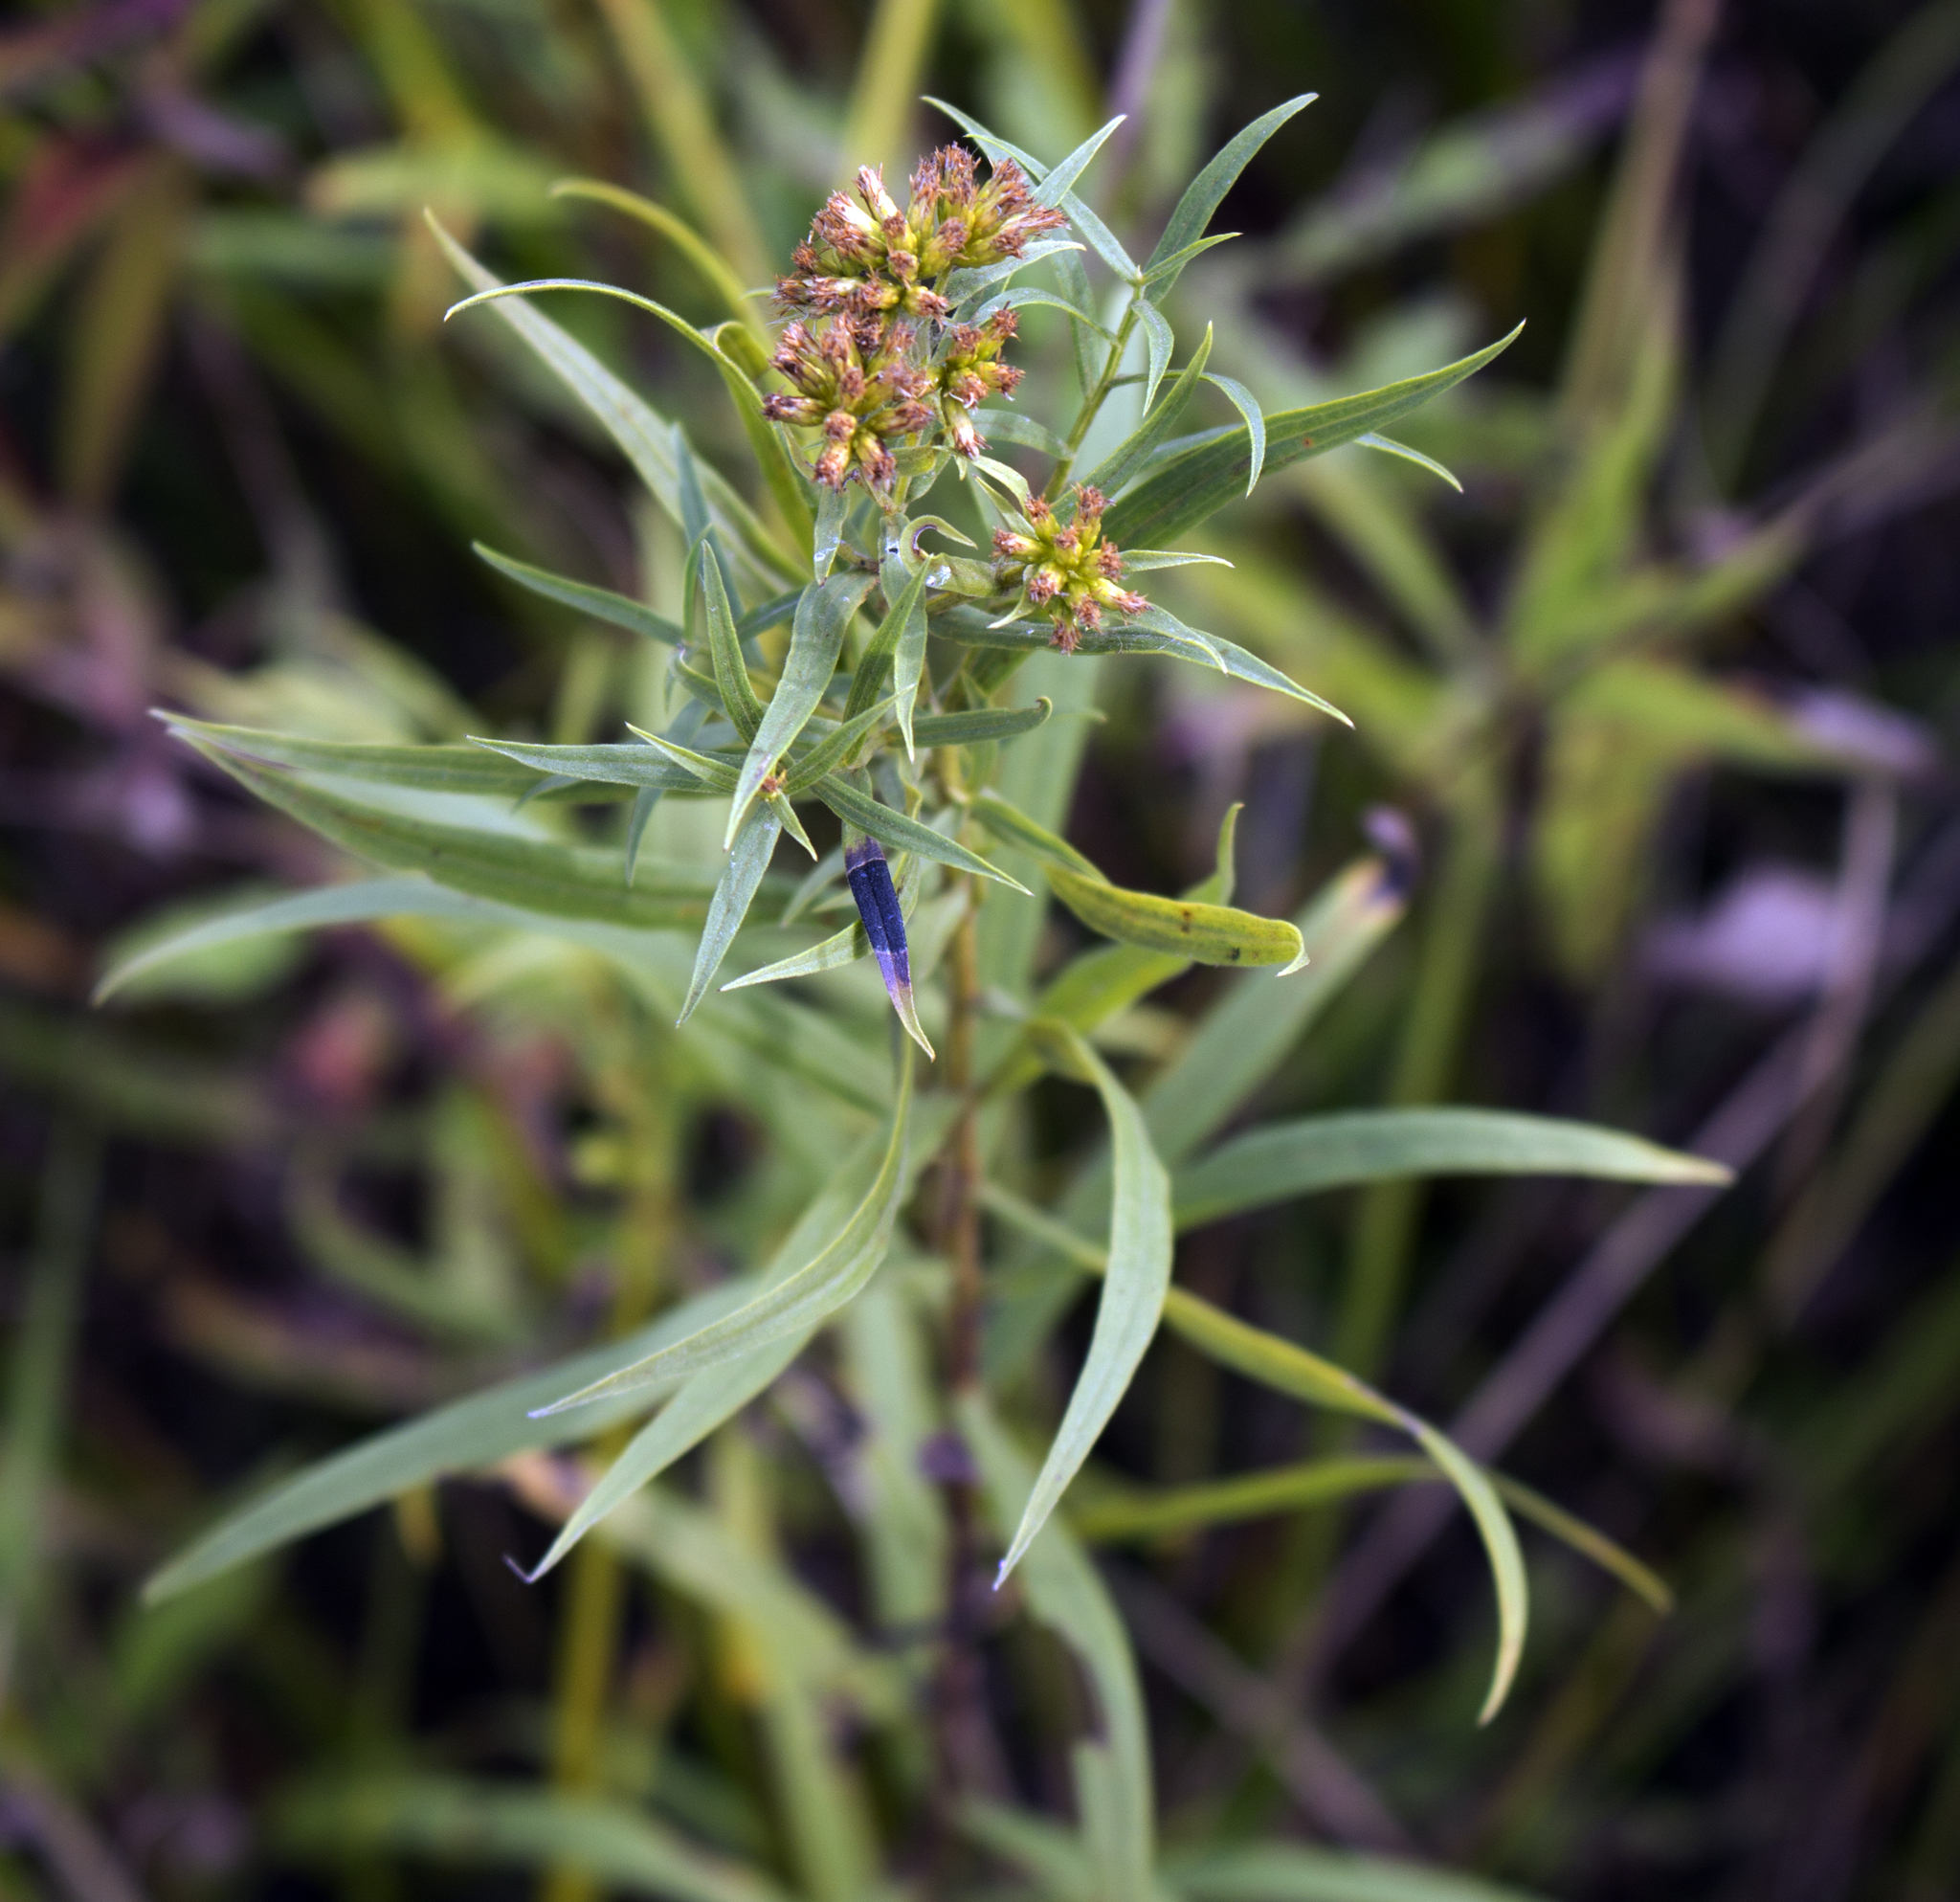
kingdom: Plantae
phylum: Tracheophyta
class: Magnoliopsida
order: Asterales
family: Asteraceae
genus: Euthamia
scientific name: Euthamia graminifolia
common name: Common goldentop
